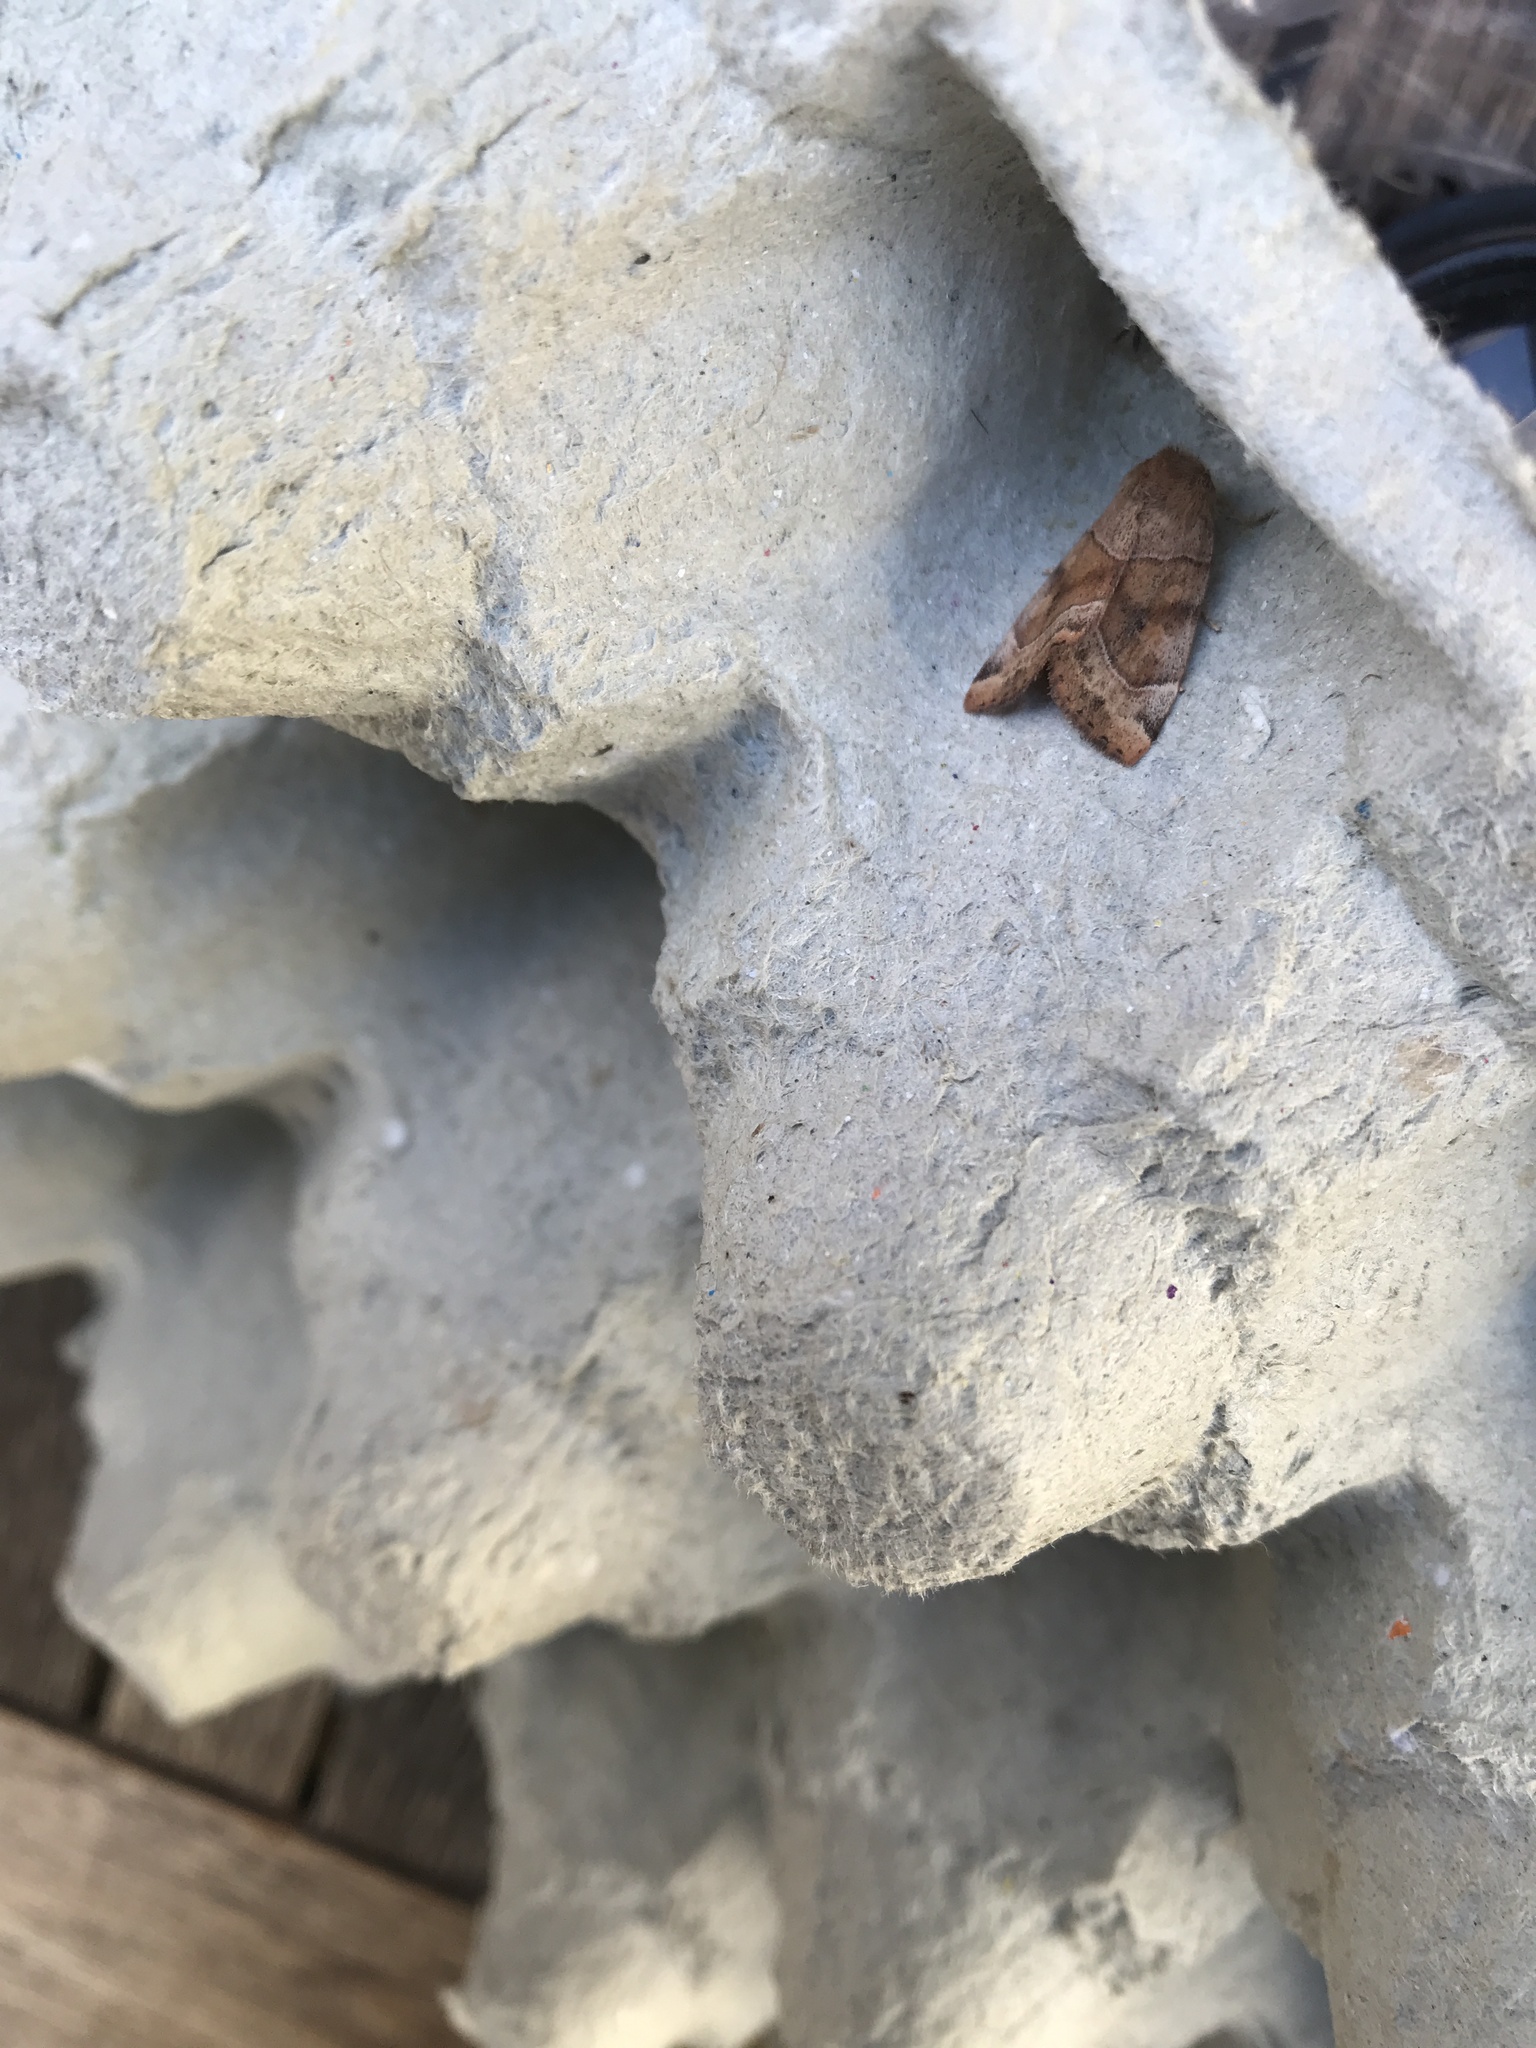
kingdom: Animalia
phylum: Arthropoda
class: Insecta
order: Lepidoptera
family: Noctuidae
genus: Cosmia
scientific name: Cosmia trapezina
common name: Dun-bar
